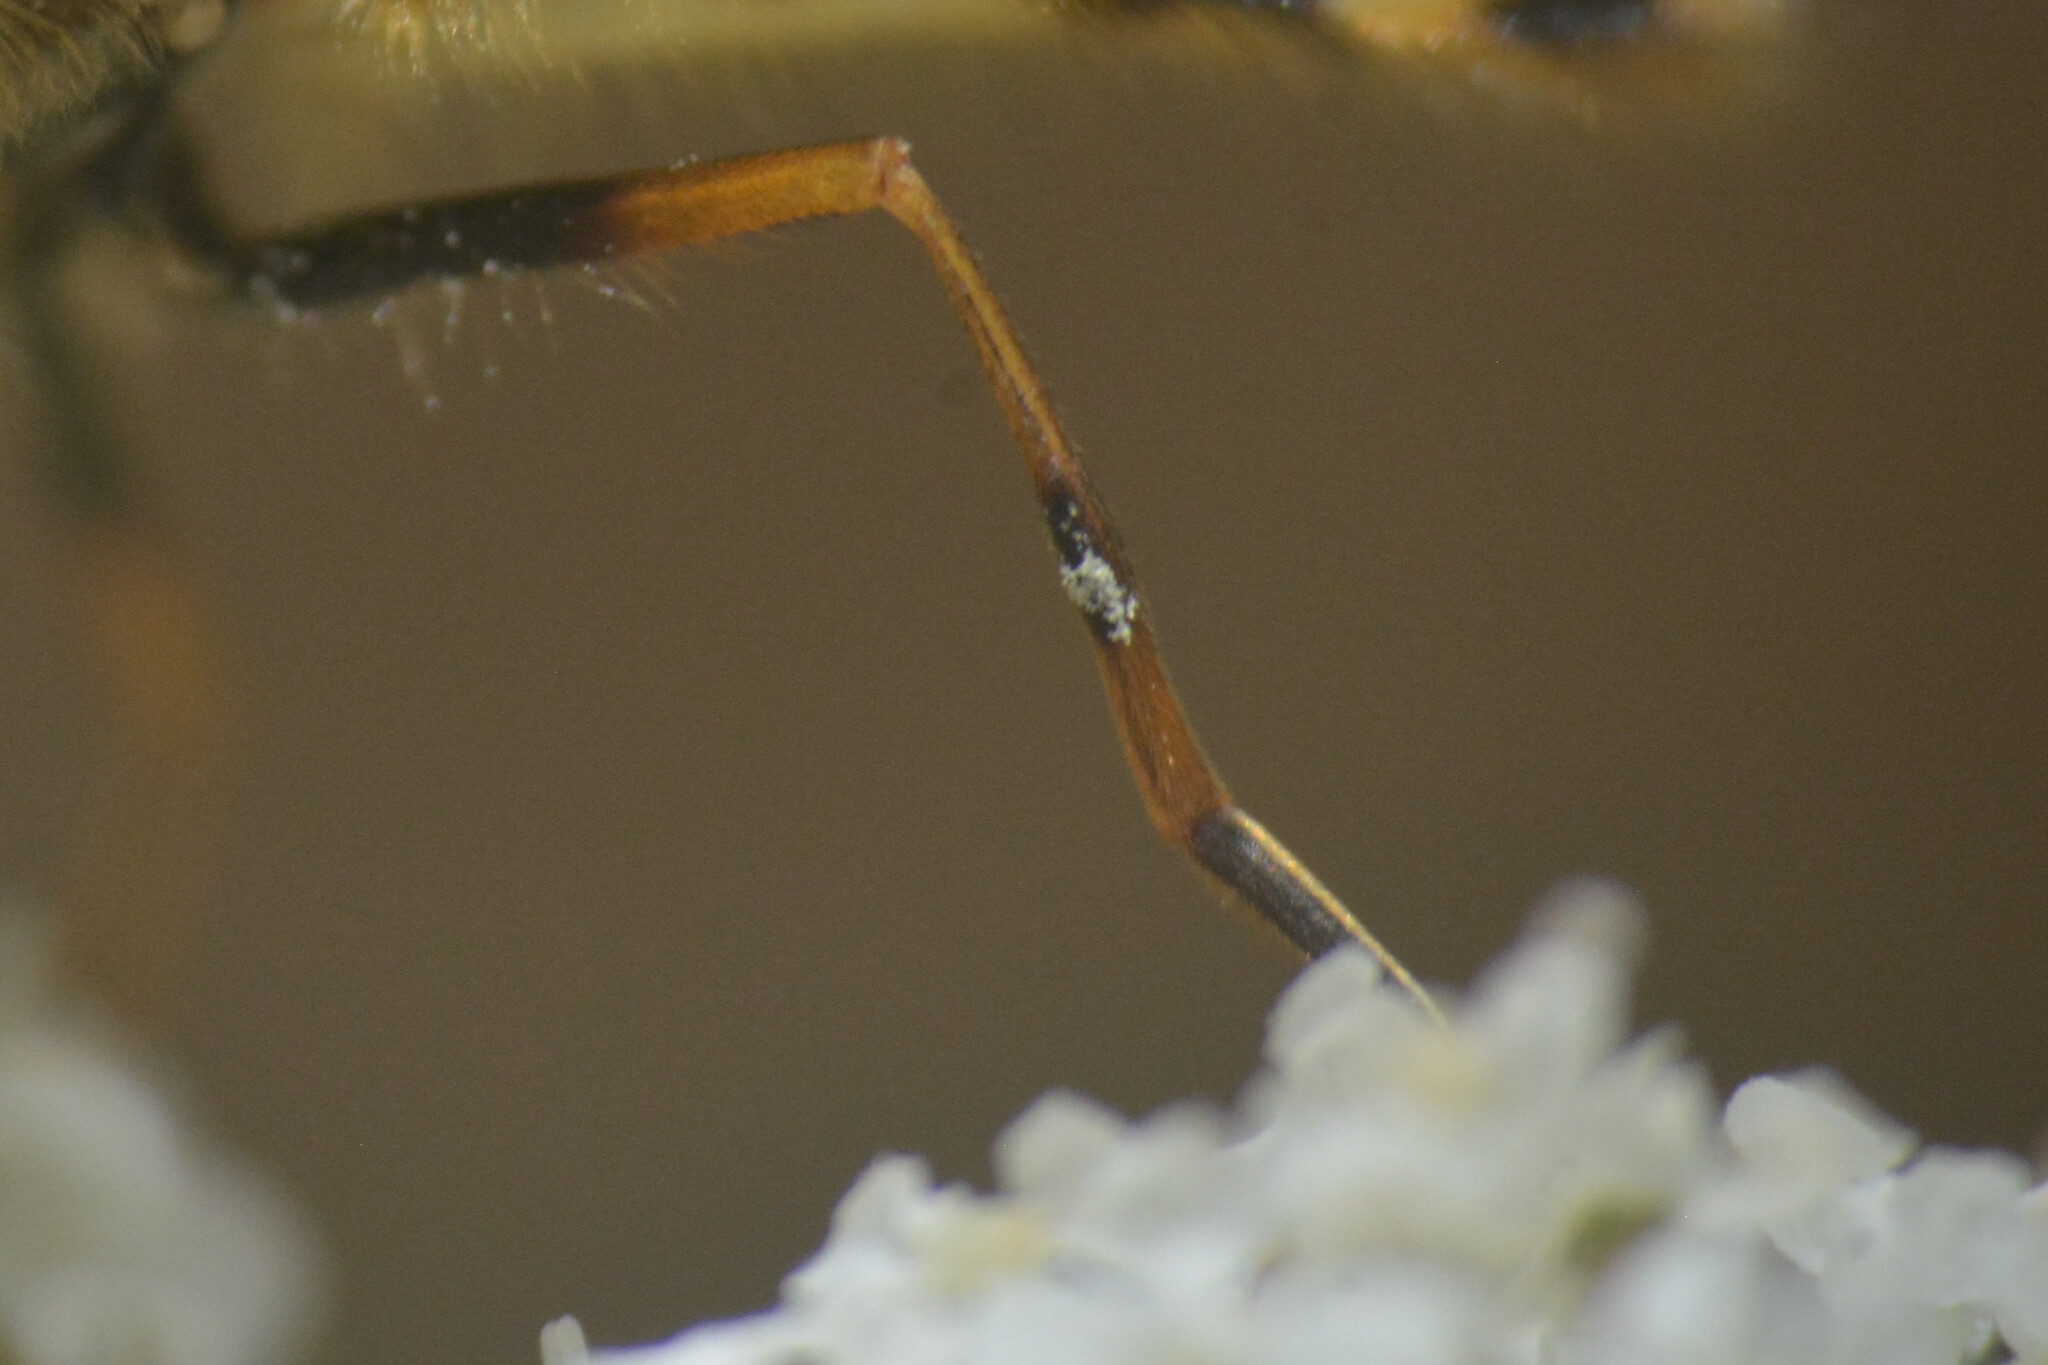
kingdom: Animalia
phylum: Arthropoda
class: Insecta
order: Diptera
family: Syrphidae
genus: Syrphus
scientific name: Syrphus
